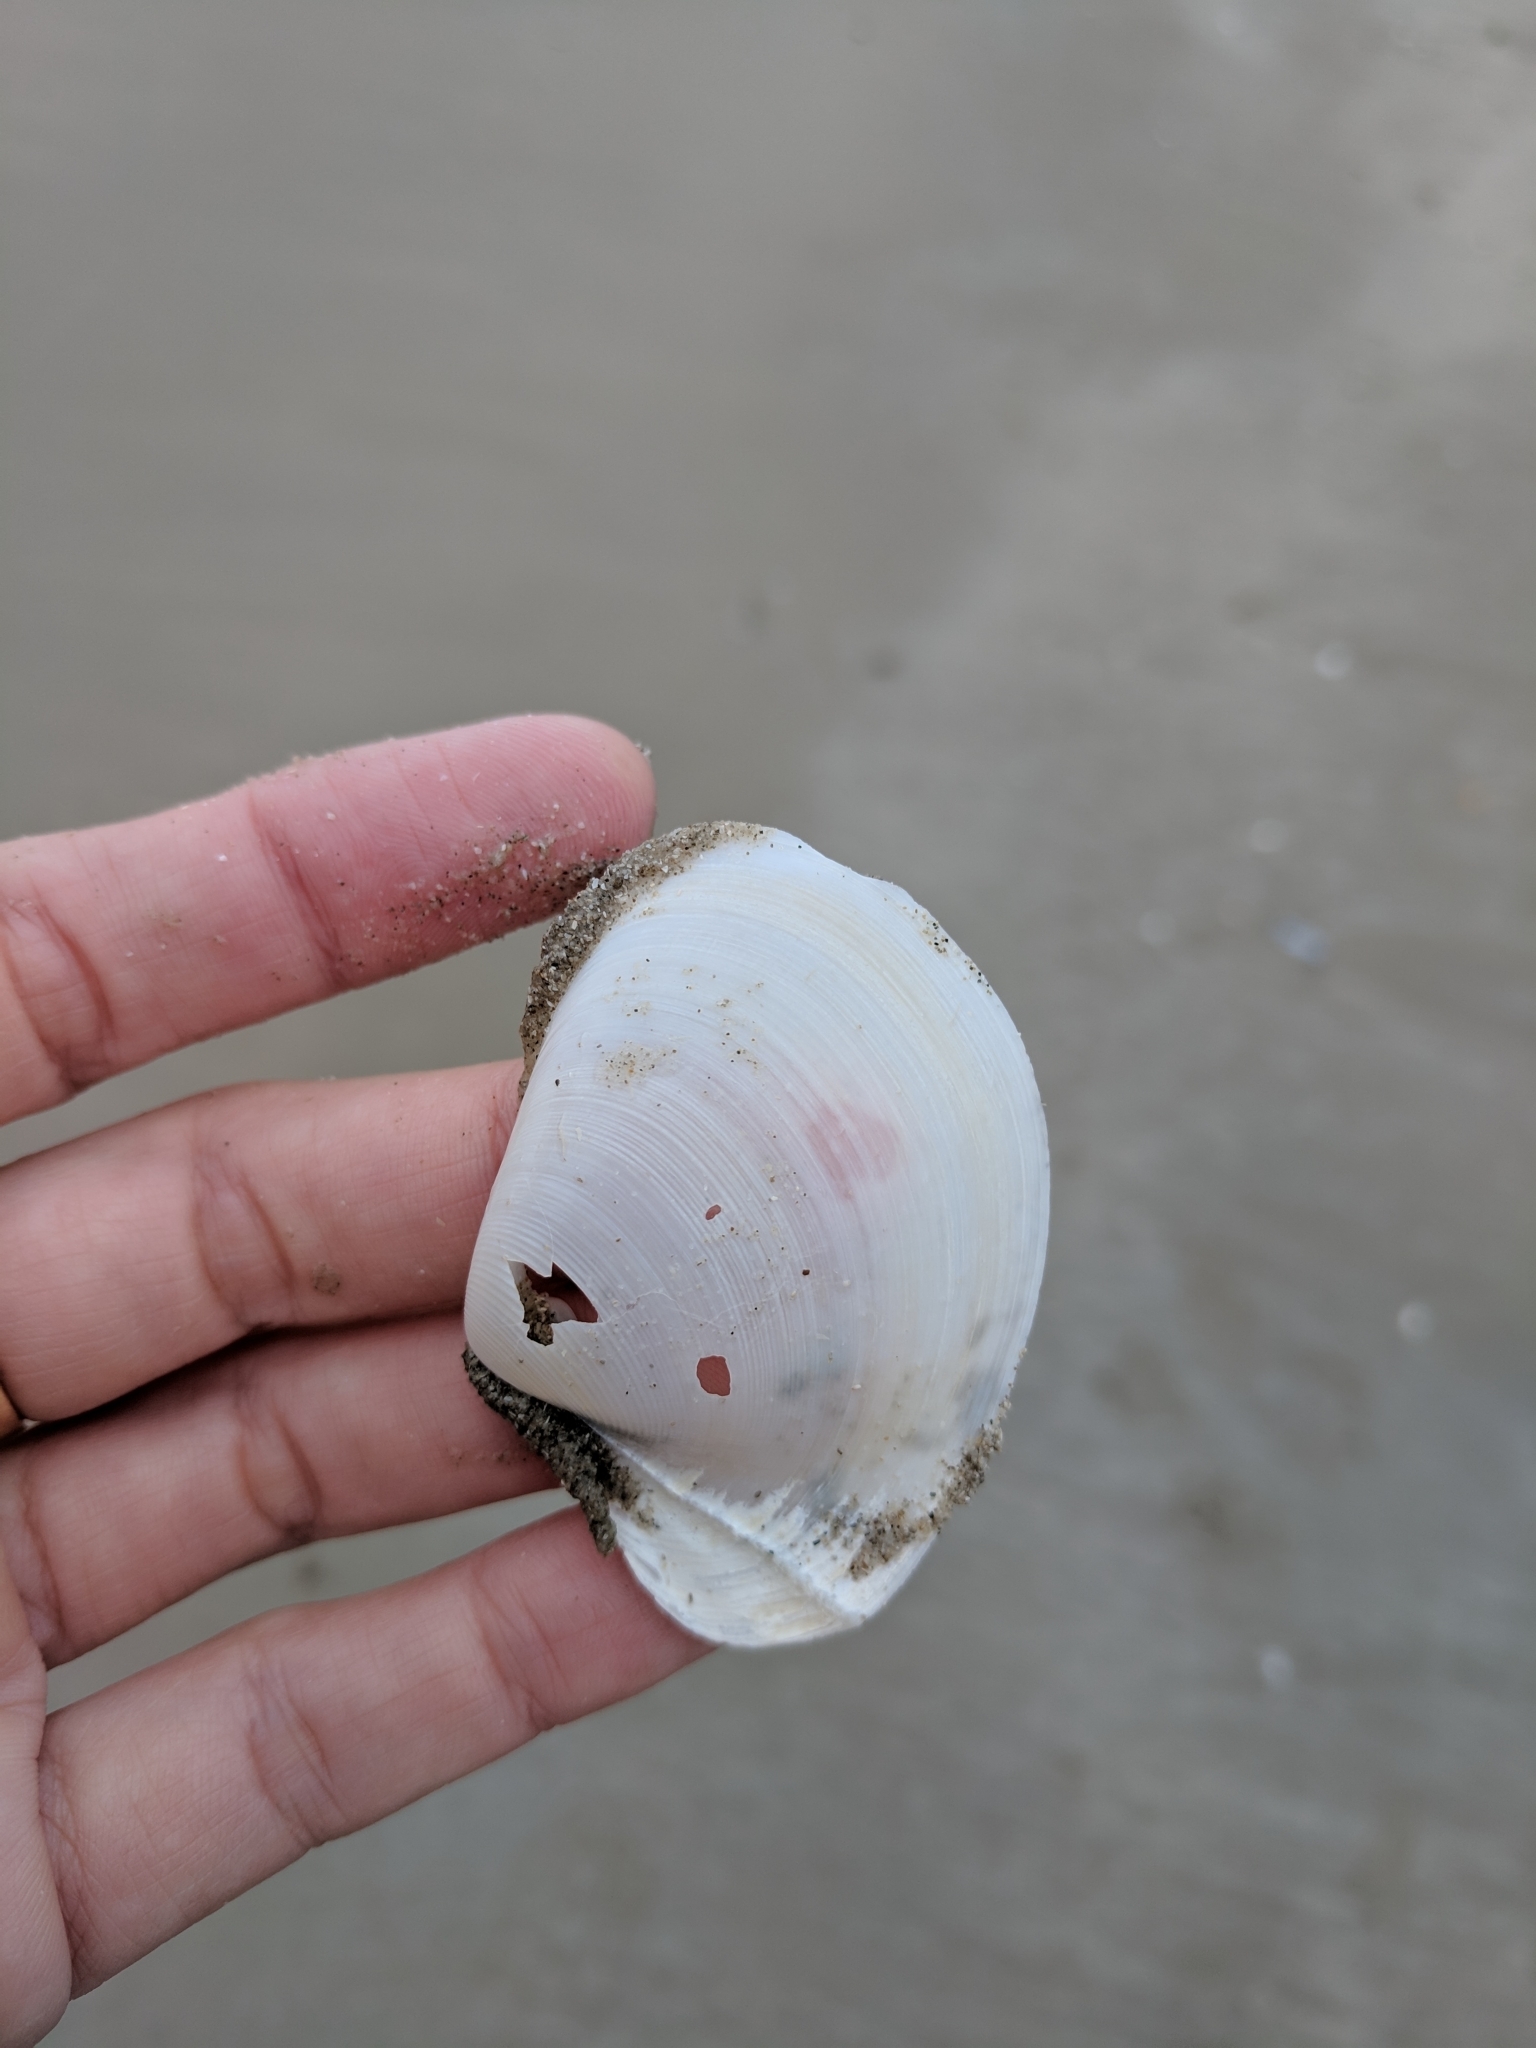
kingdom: Animalia
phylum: Mollusca
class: Bivalvia
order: Venerida
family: Anatinellidae
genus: Anatina
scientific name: Anatina anatina
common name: Smooth duckclam
